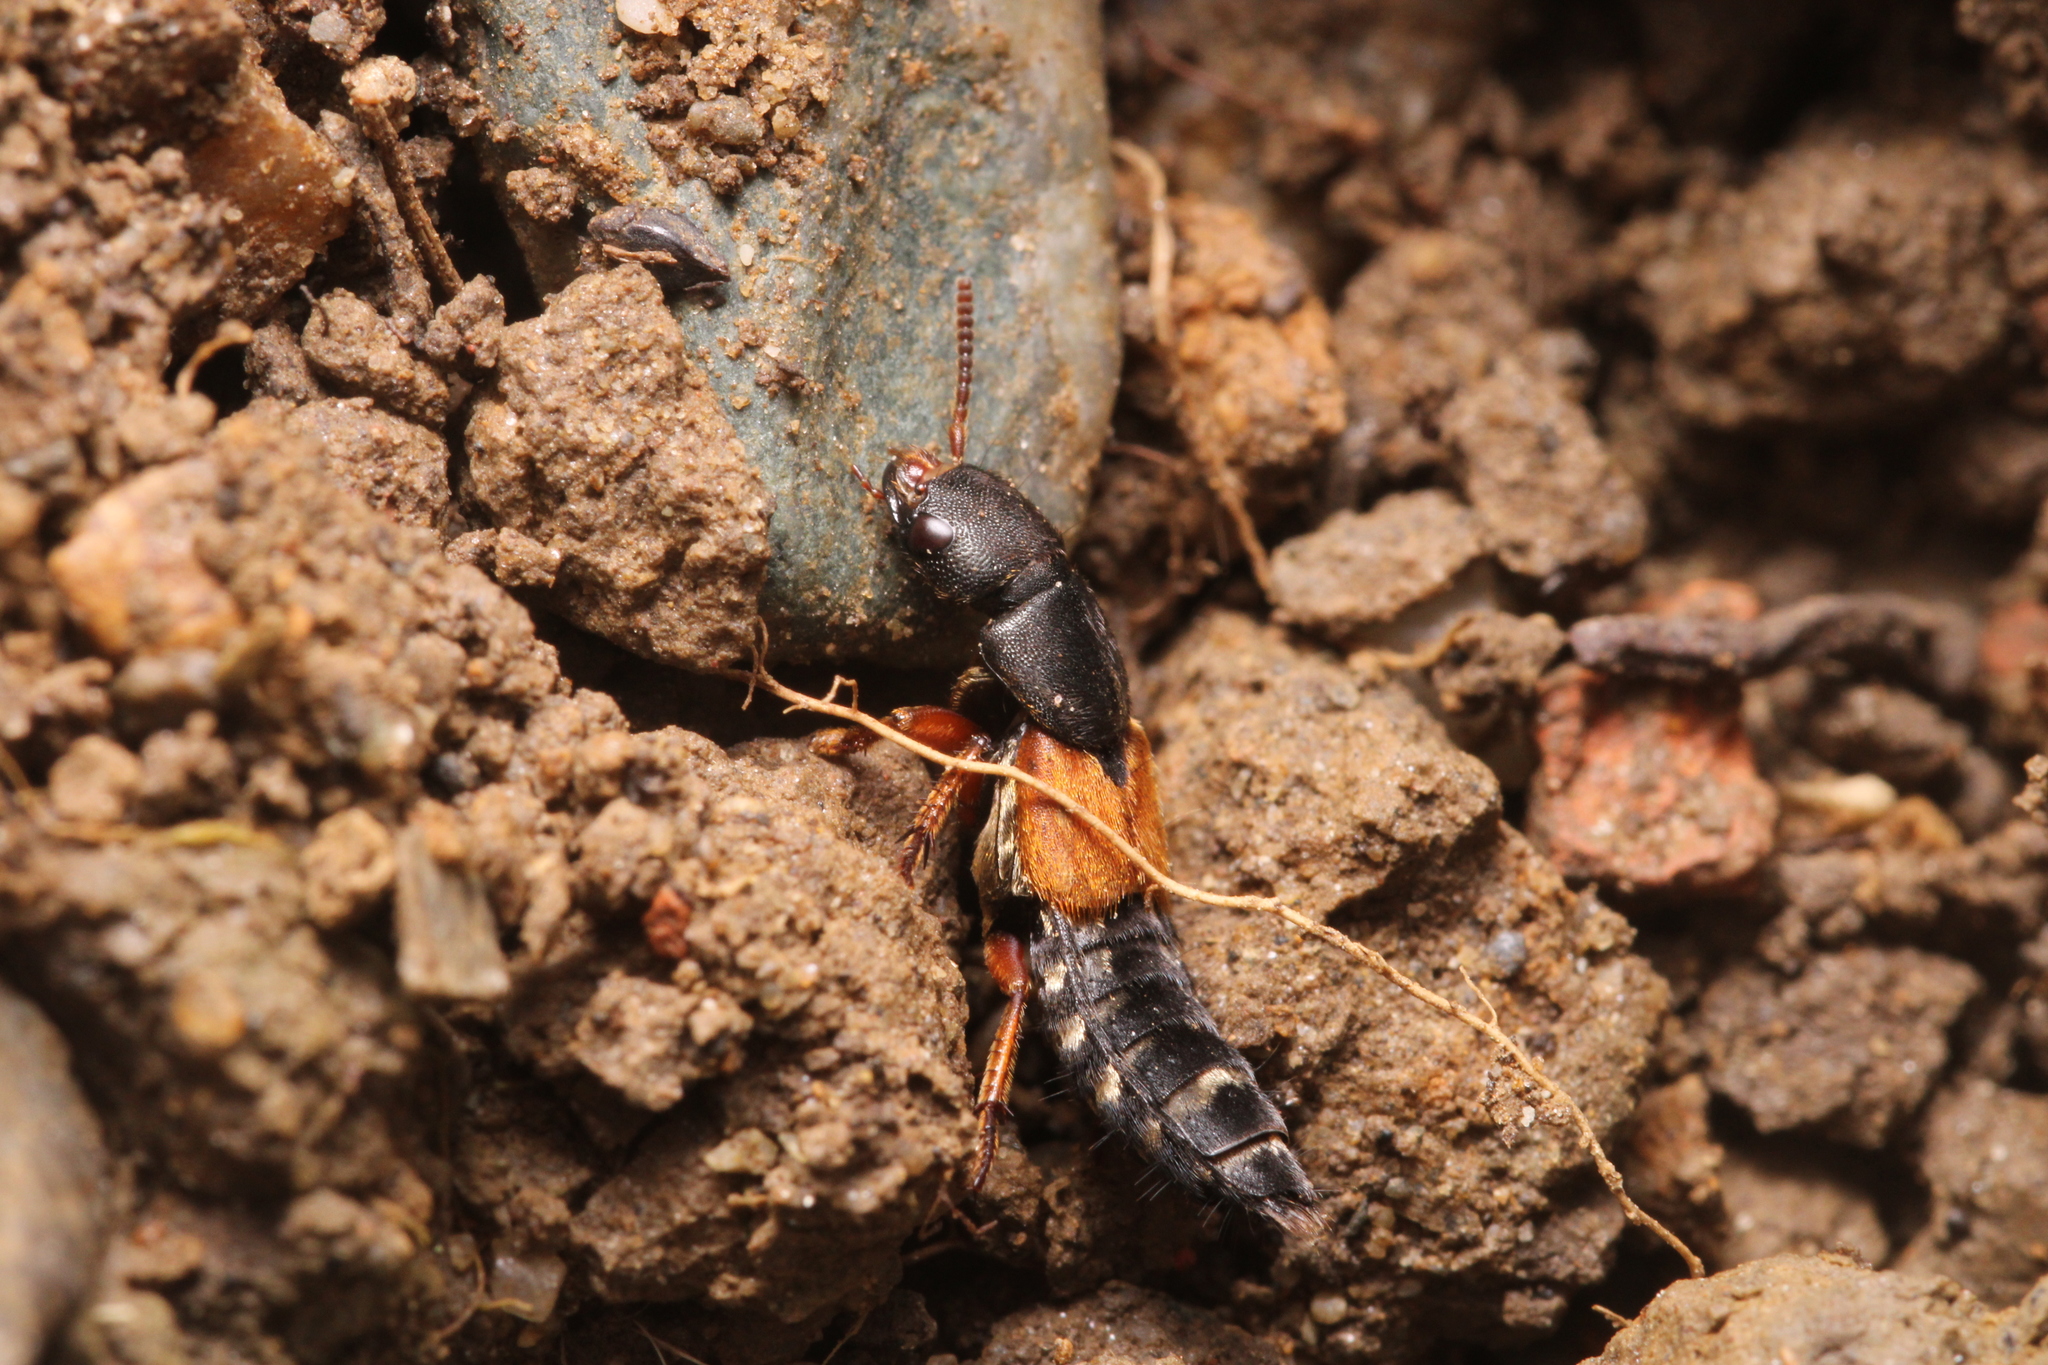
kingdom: Animalia
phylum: Arthropoda
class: Insecta
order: Coleoptera
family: Staphylinidae
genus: Platydracus
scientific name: Platydracus stercorarius
